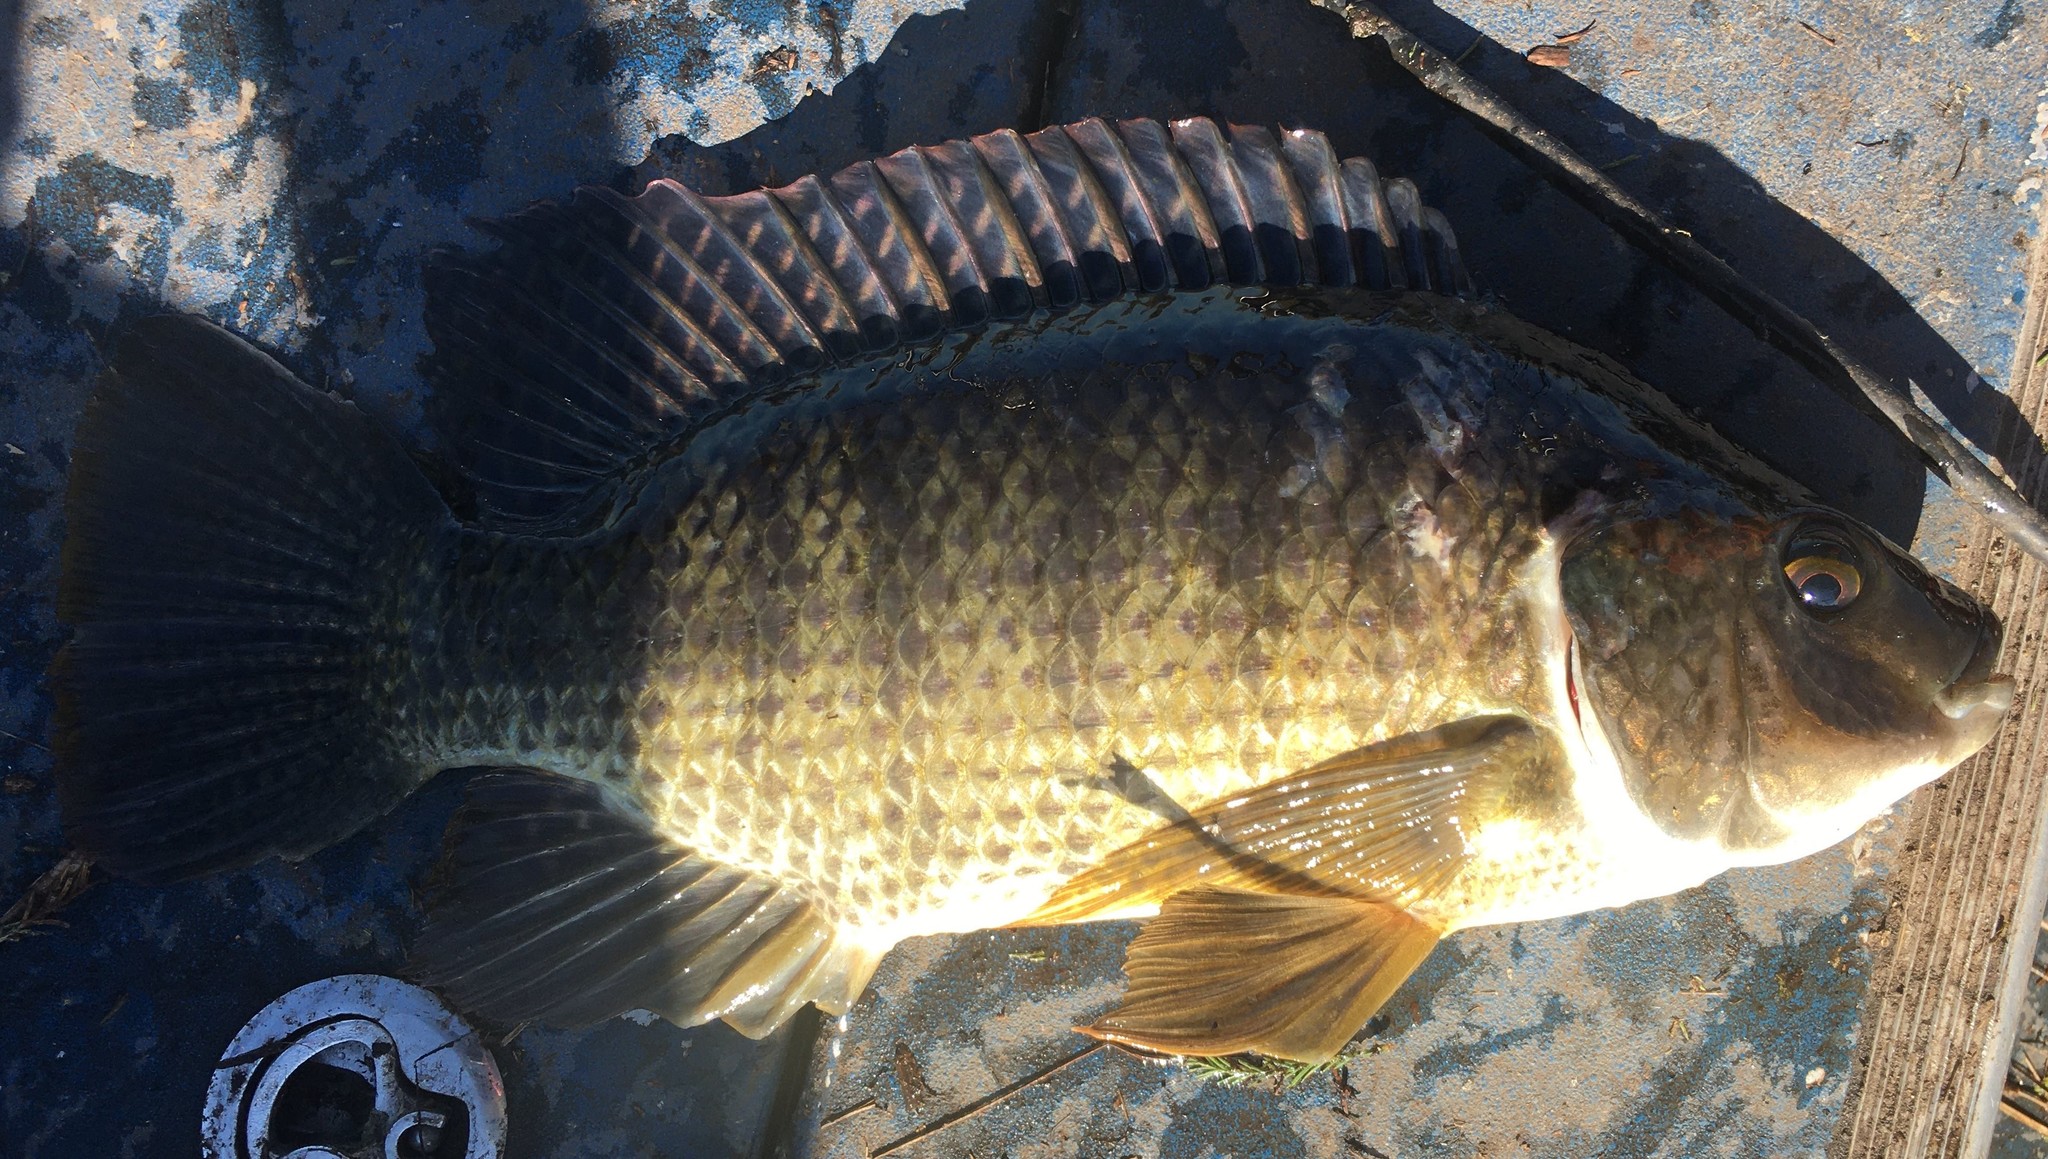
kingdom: Animalia
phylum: Chordata
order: Perciformes
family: Cichlidae
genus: Oreochromis
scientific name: Oreochromis aureus
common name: Blue tilapia
